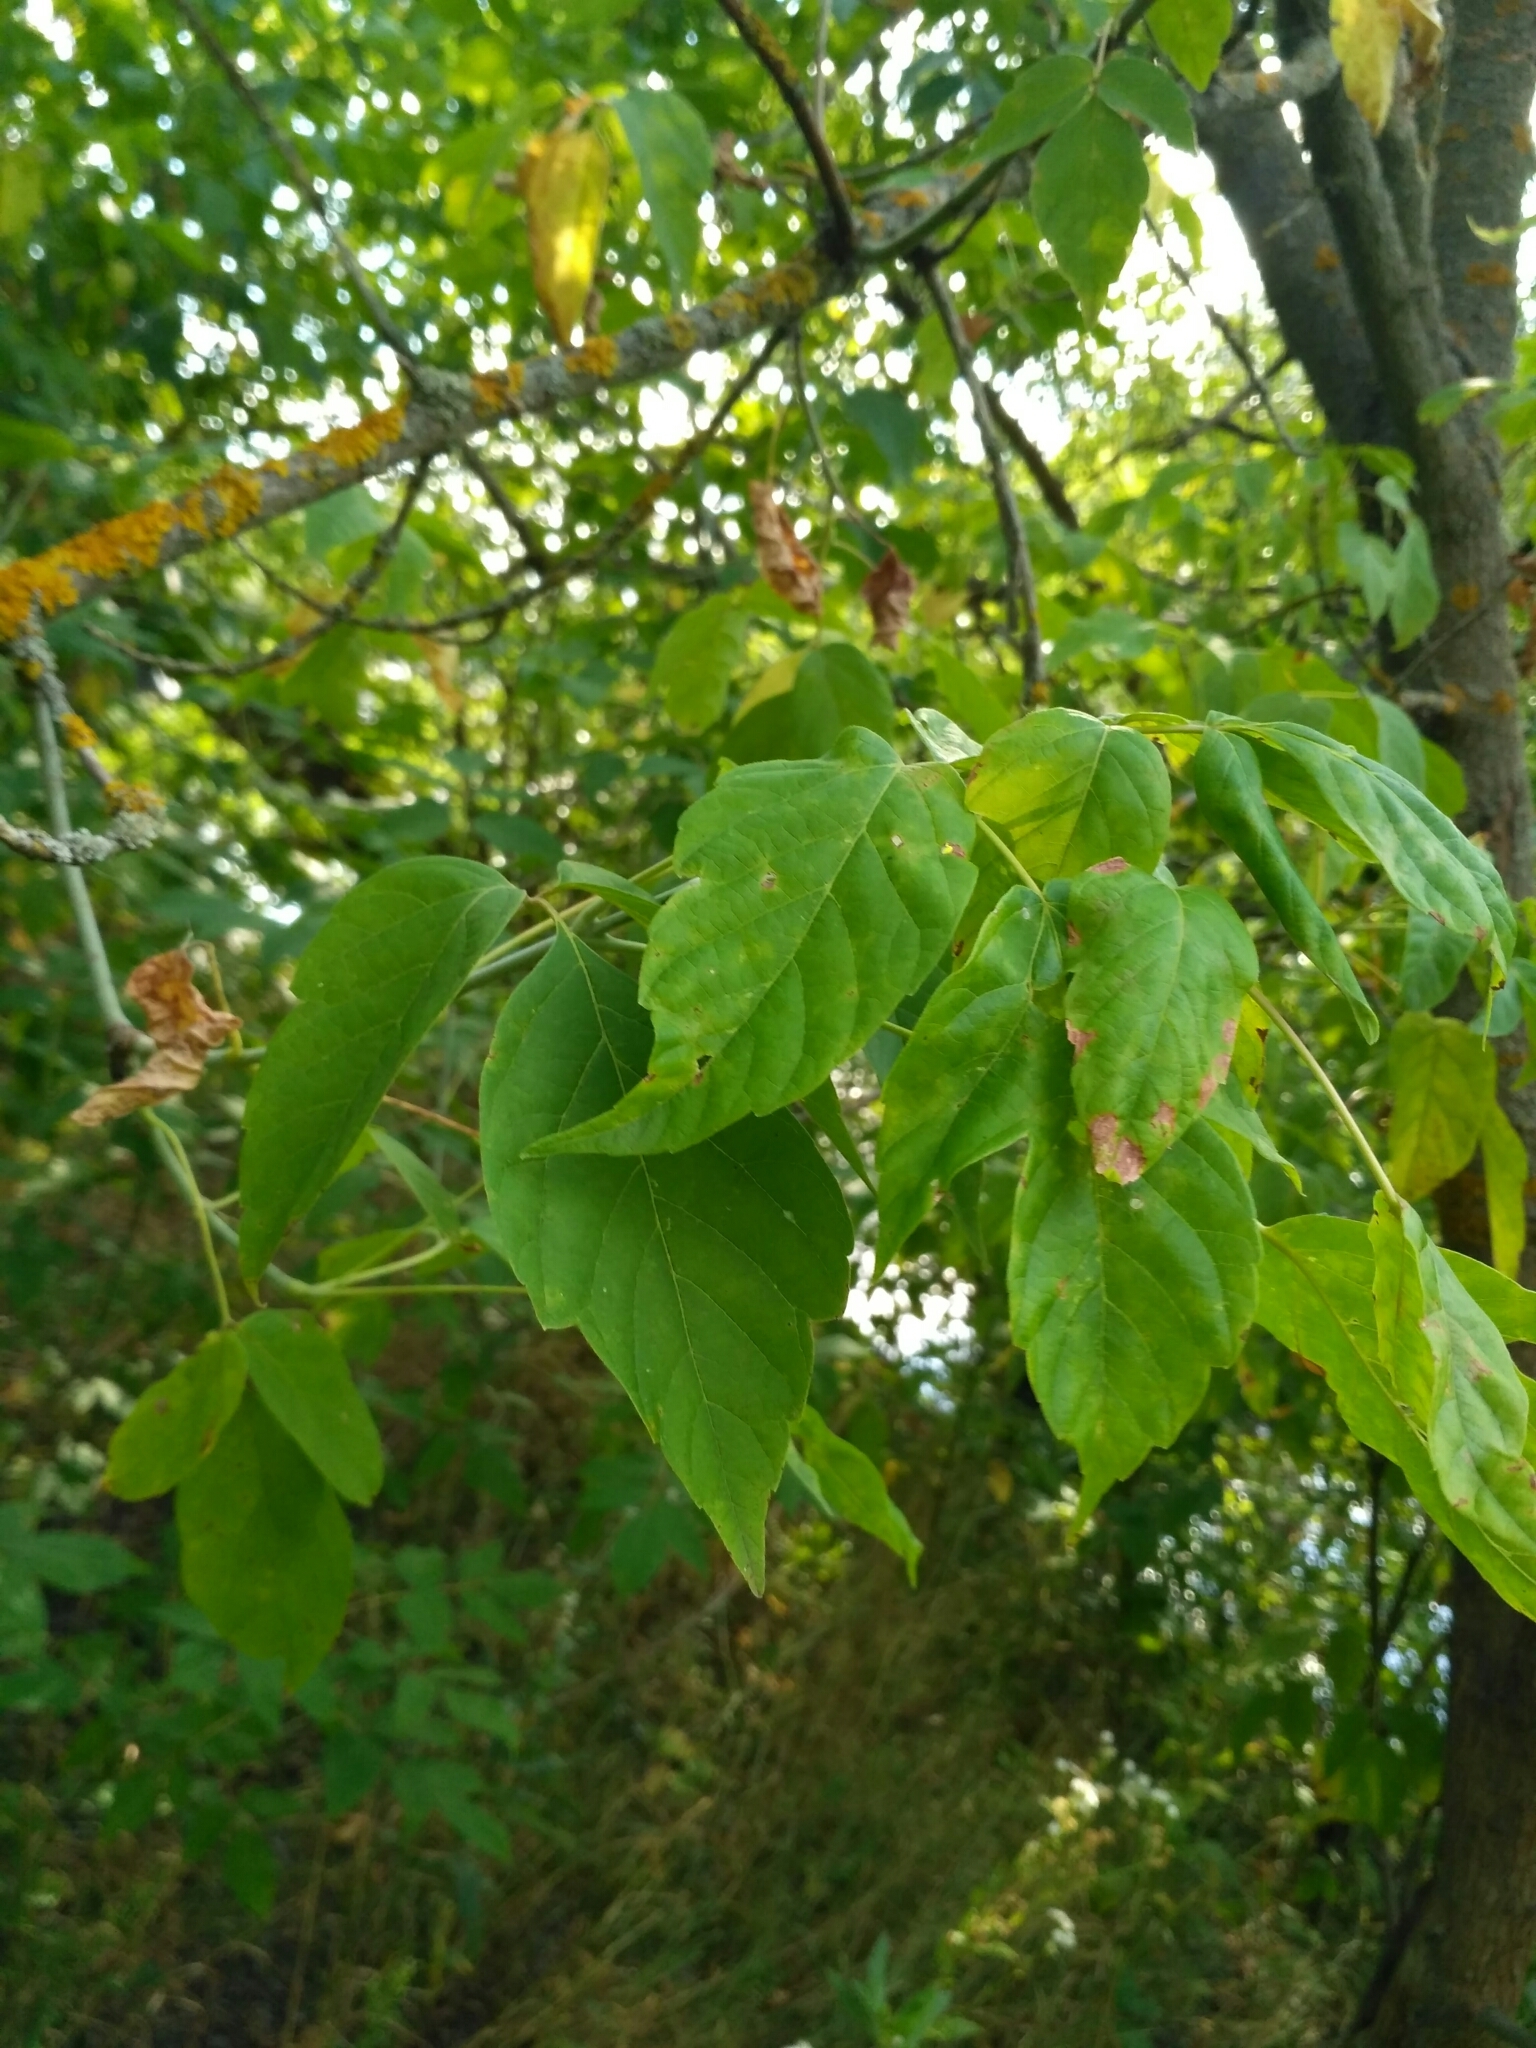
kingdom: Plantae
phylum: Tracheophyta
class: Magnoliopsida
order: Sapindales
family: Sapindaceae
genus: Acer
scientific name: Acer negundo
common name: Ashleaf maple
